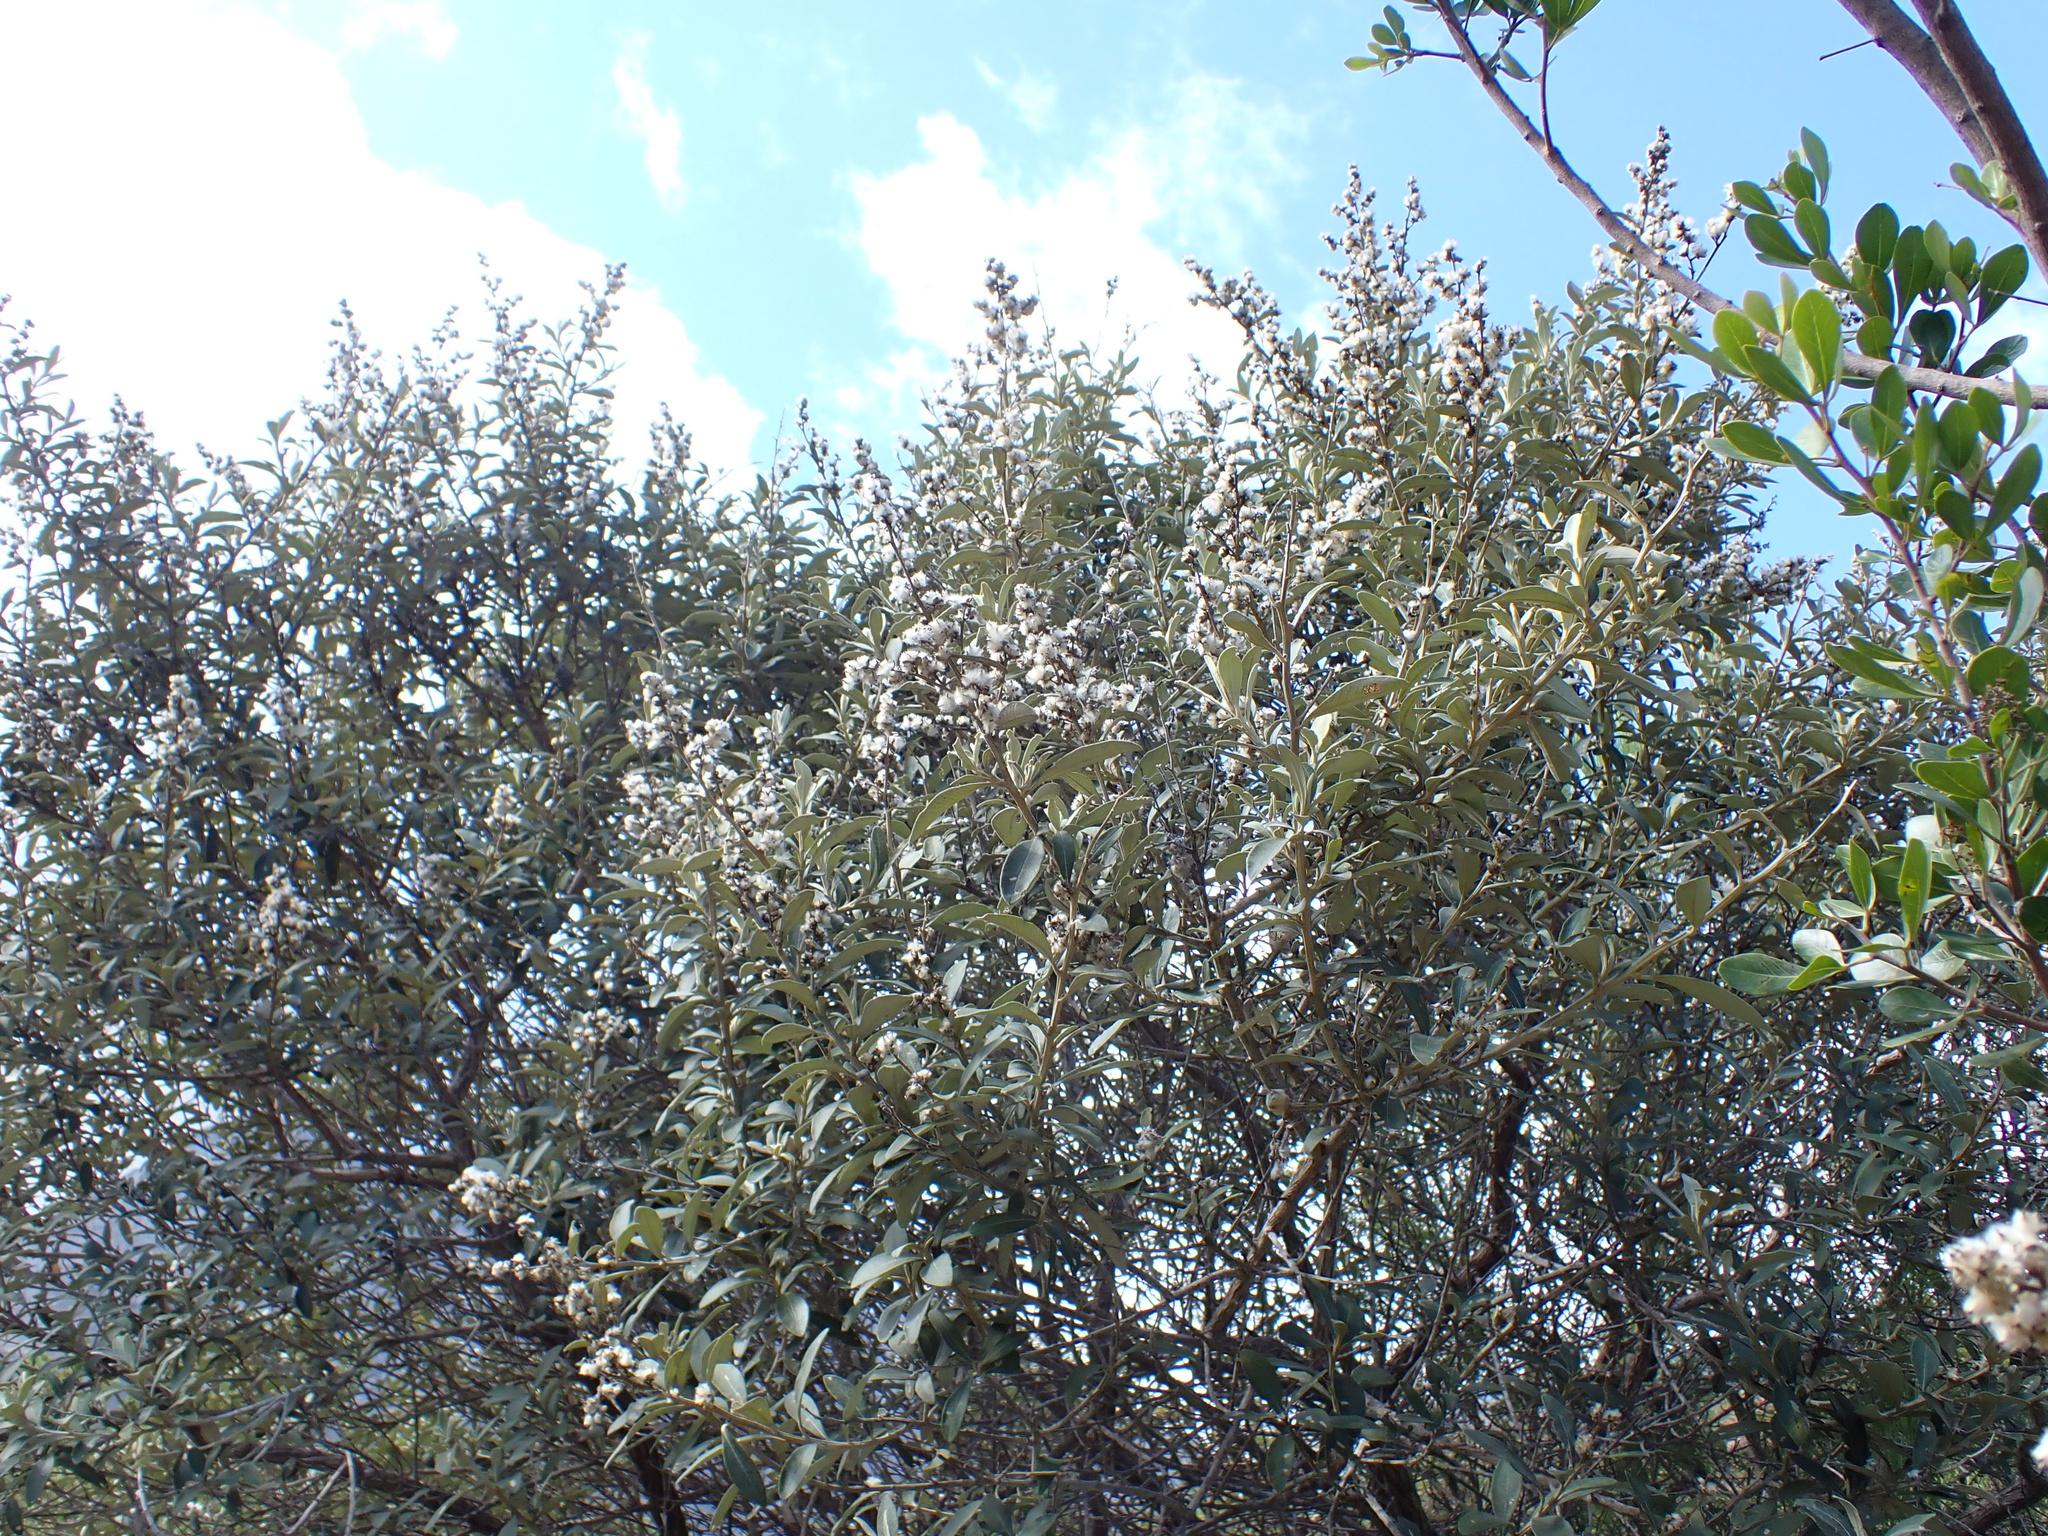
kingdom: Plantae
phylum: Tracheophyta
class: Magnoliopsida
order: Asterales
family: Asteraceae
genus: Tarchonanthus
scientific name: Tarchonanthus littoralis
